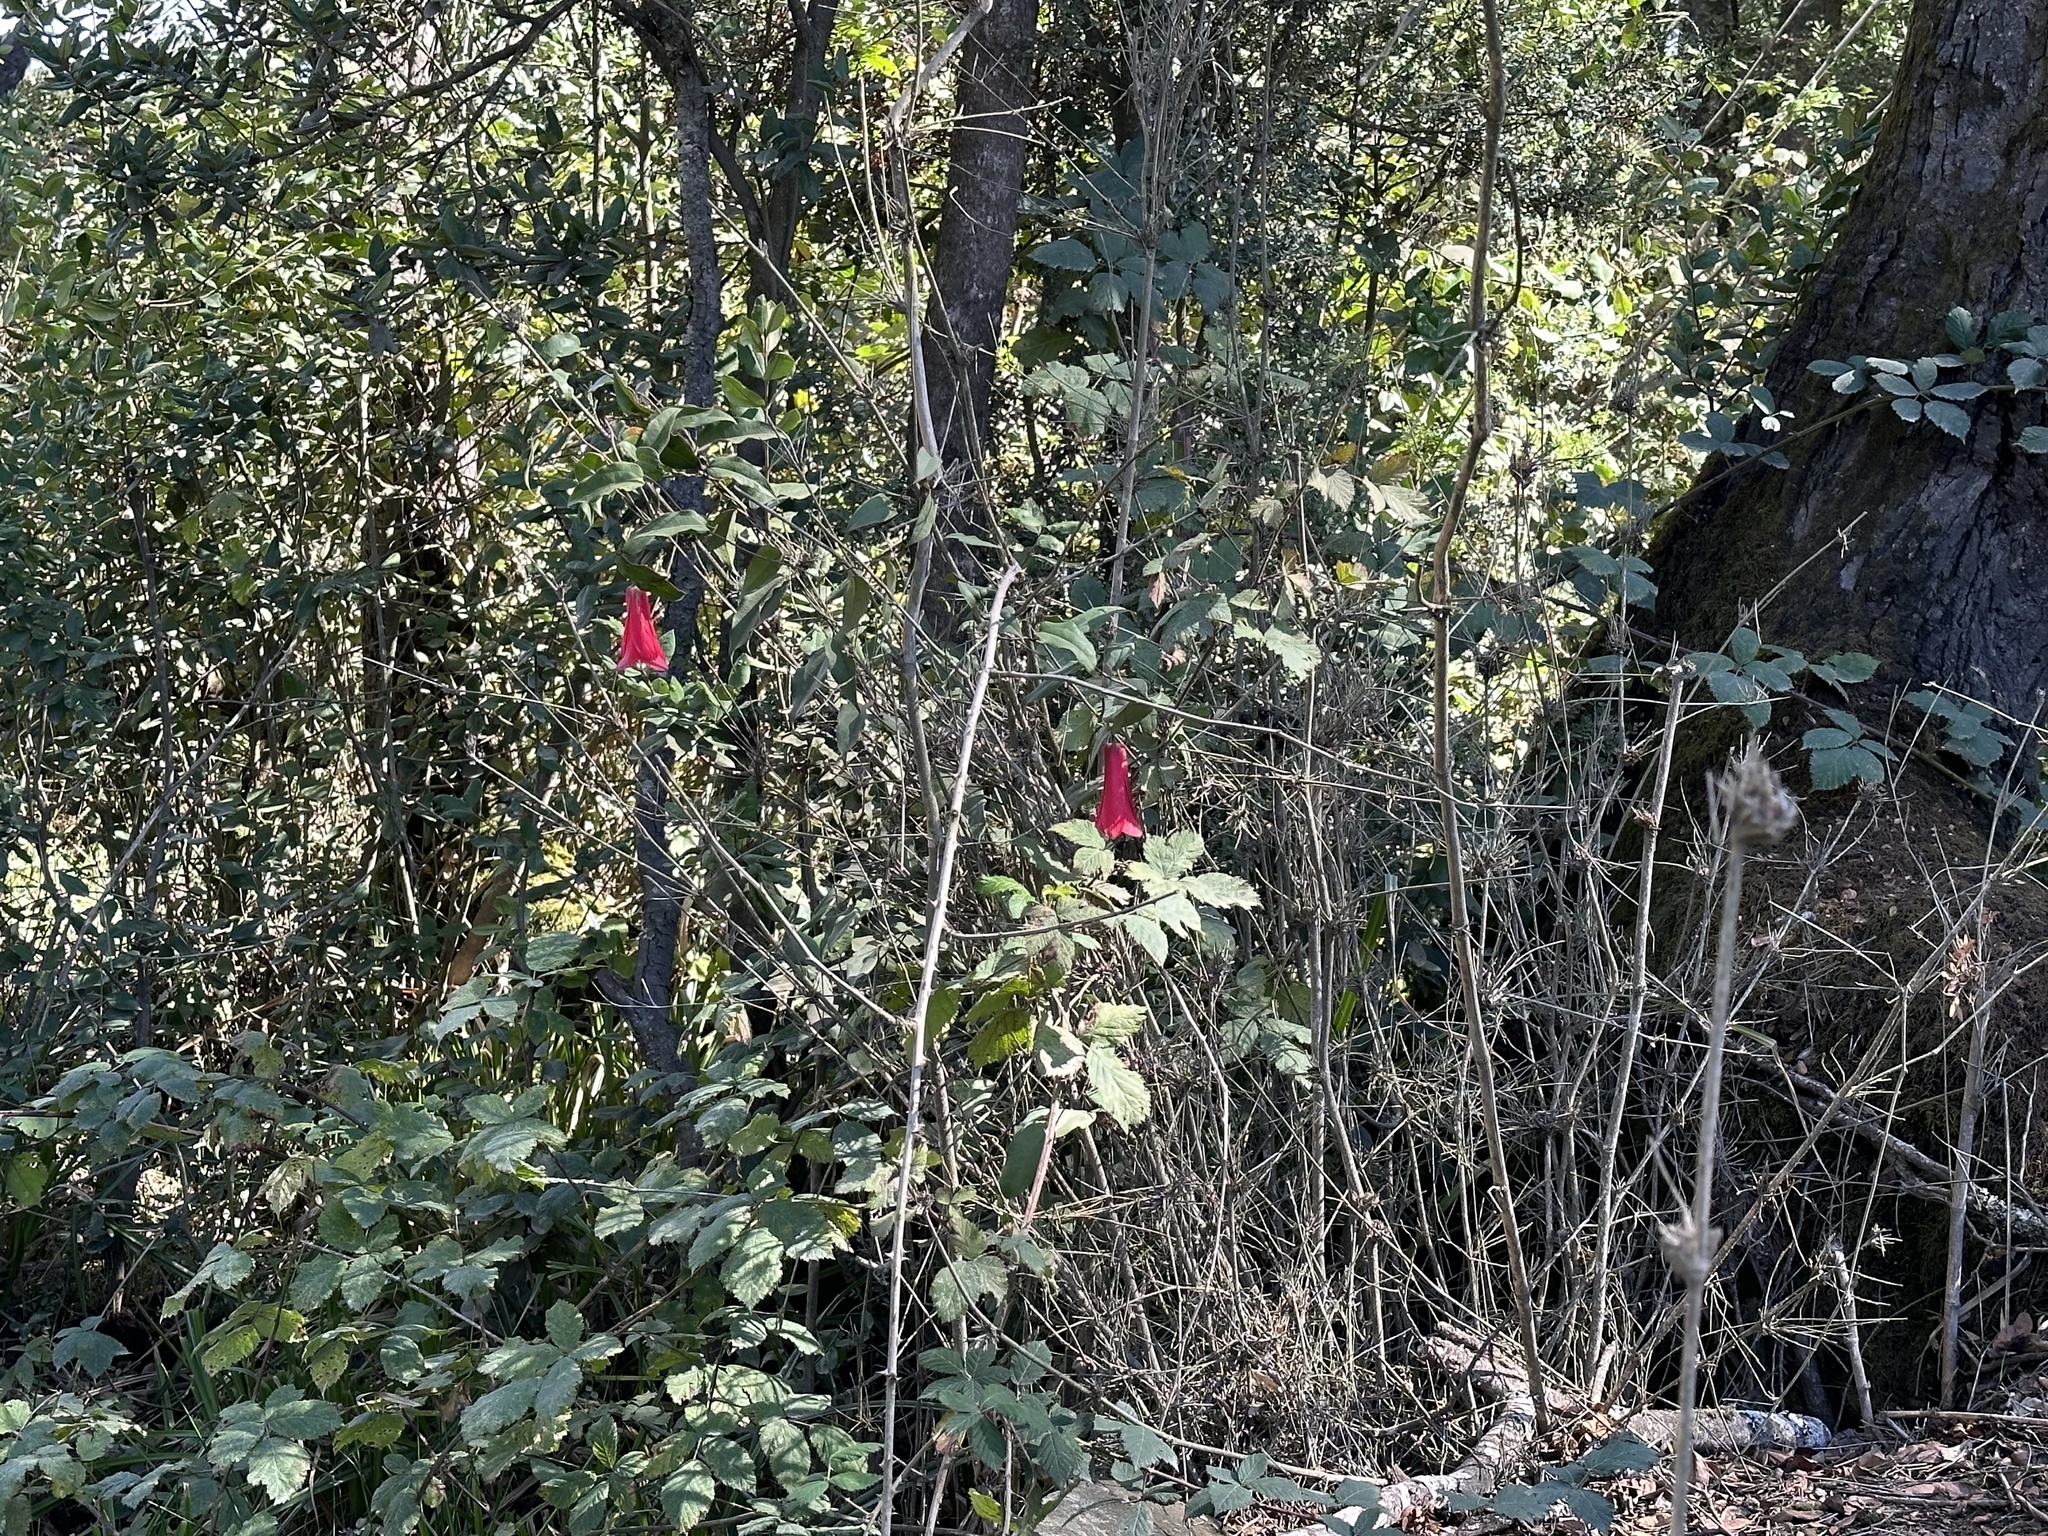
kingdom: Plantae
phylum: Tracheophyta
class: Liliopsida
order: Liliales
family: Philesiaceae
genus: Lapageria
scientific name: Lapageria rosea
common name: Chilean-bellflower
